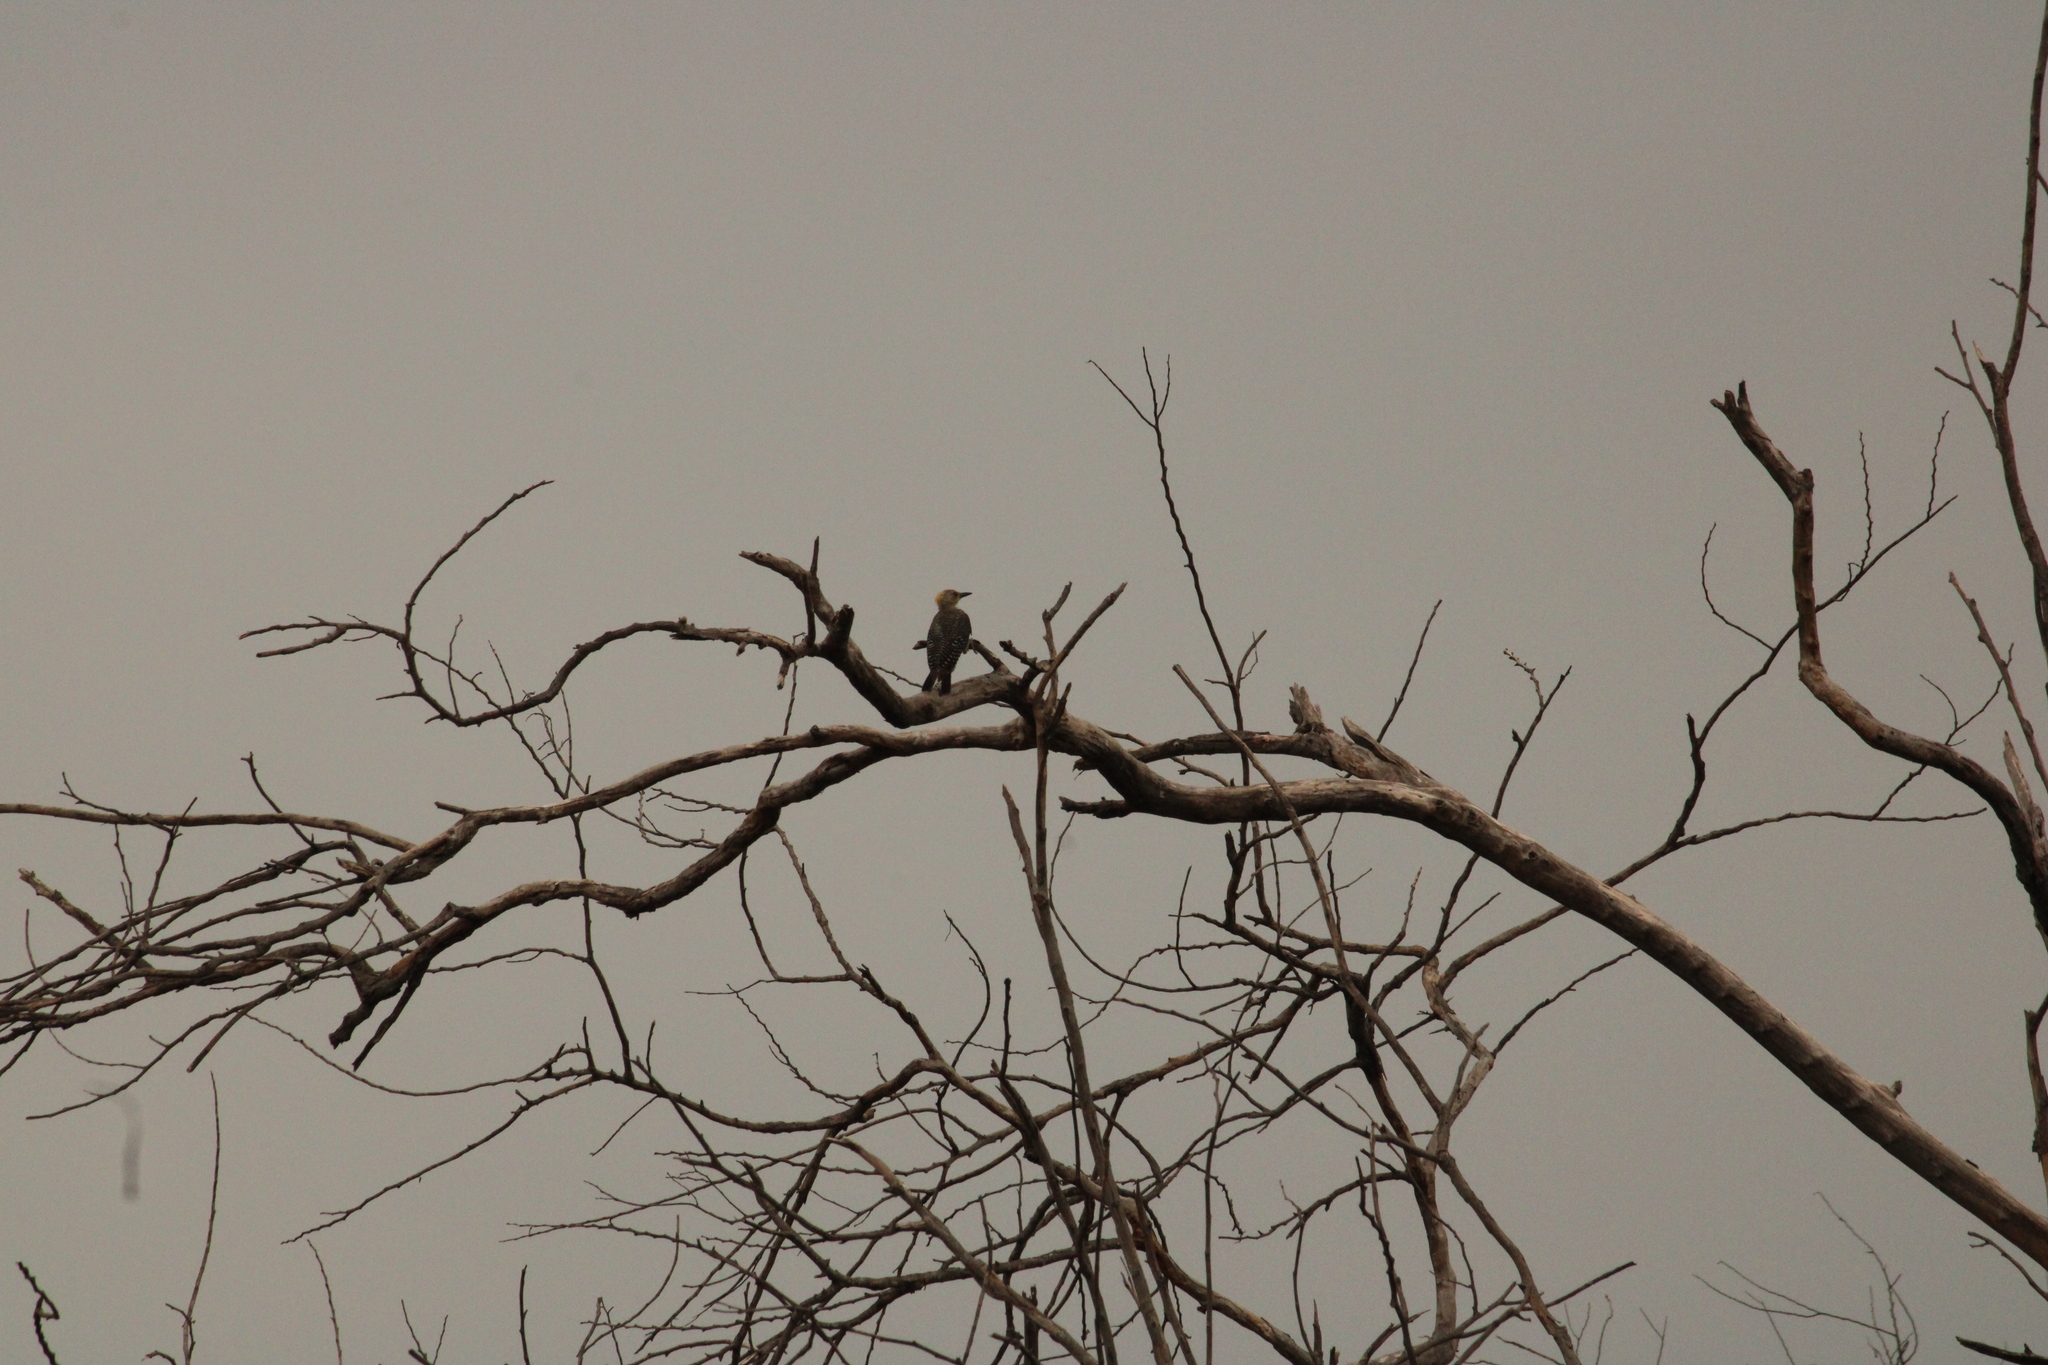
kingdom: Animalia
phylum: Chordata
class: Aves
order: Piciformes
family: Picidae
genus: Melanerpes
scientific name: Melanerpes aurifrons
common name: Golden-fronted woodpecker
